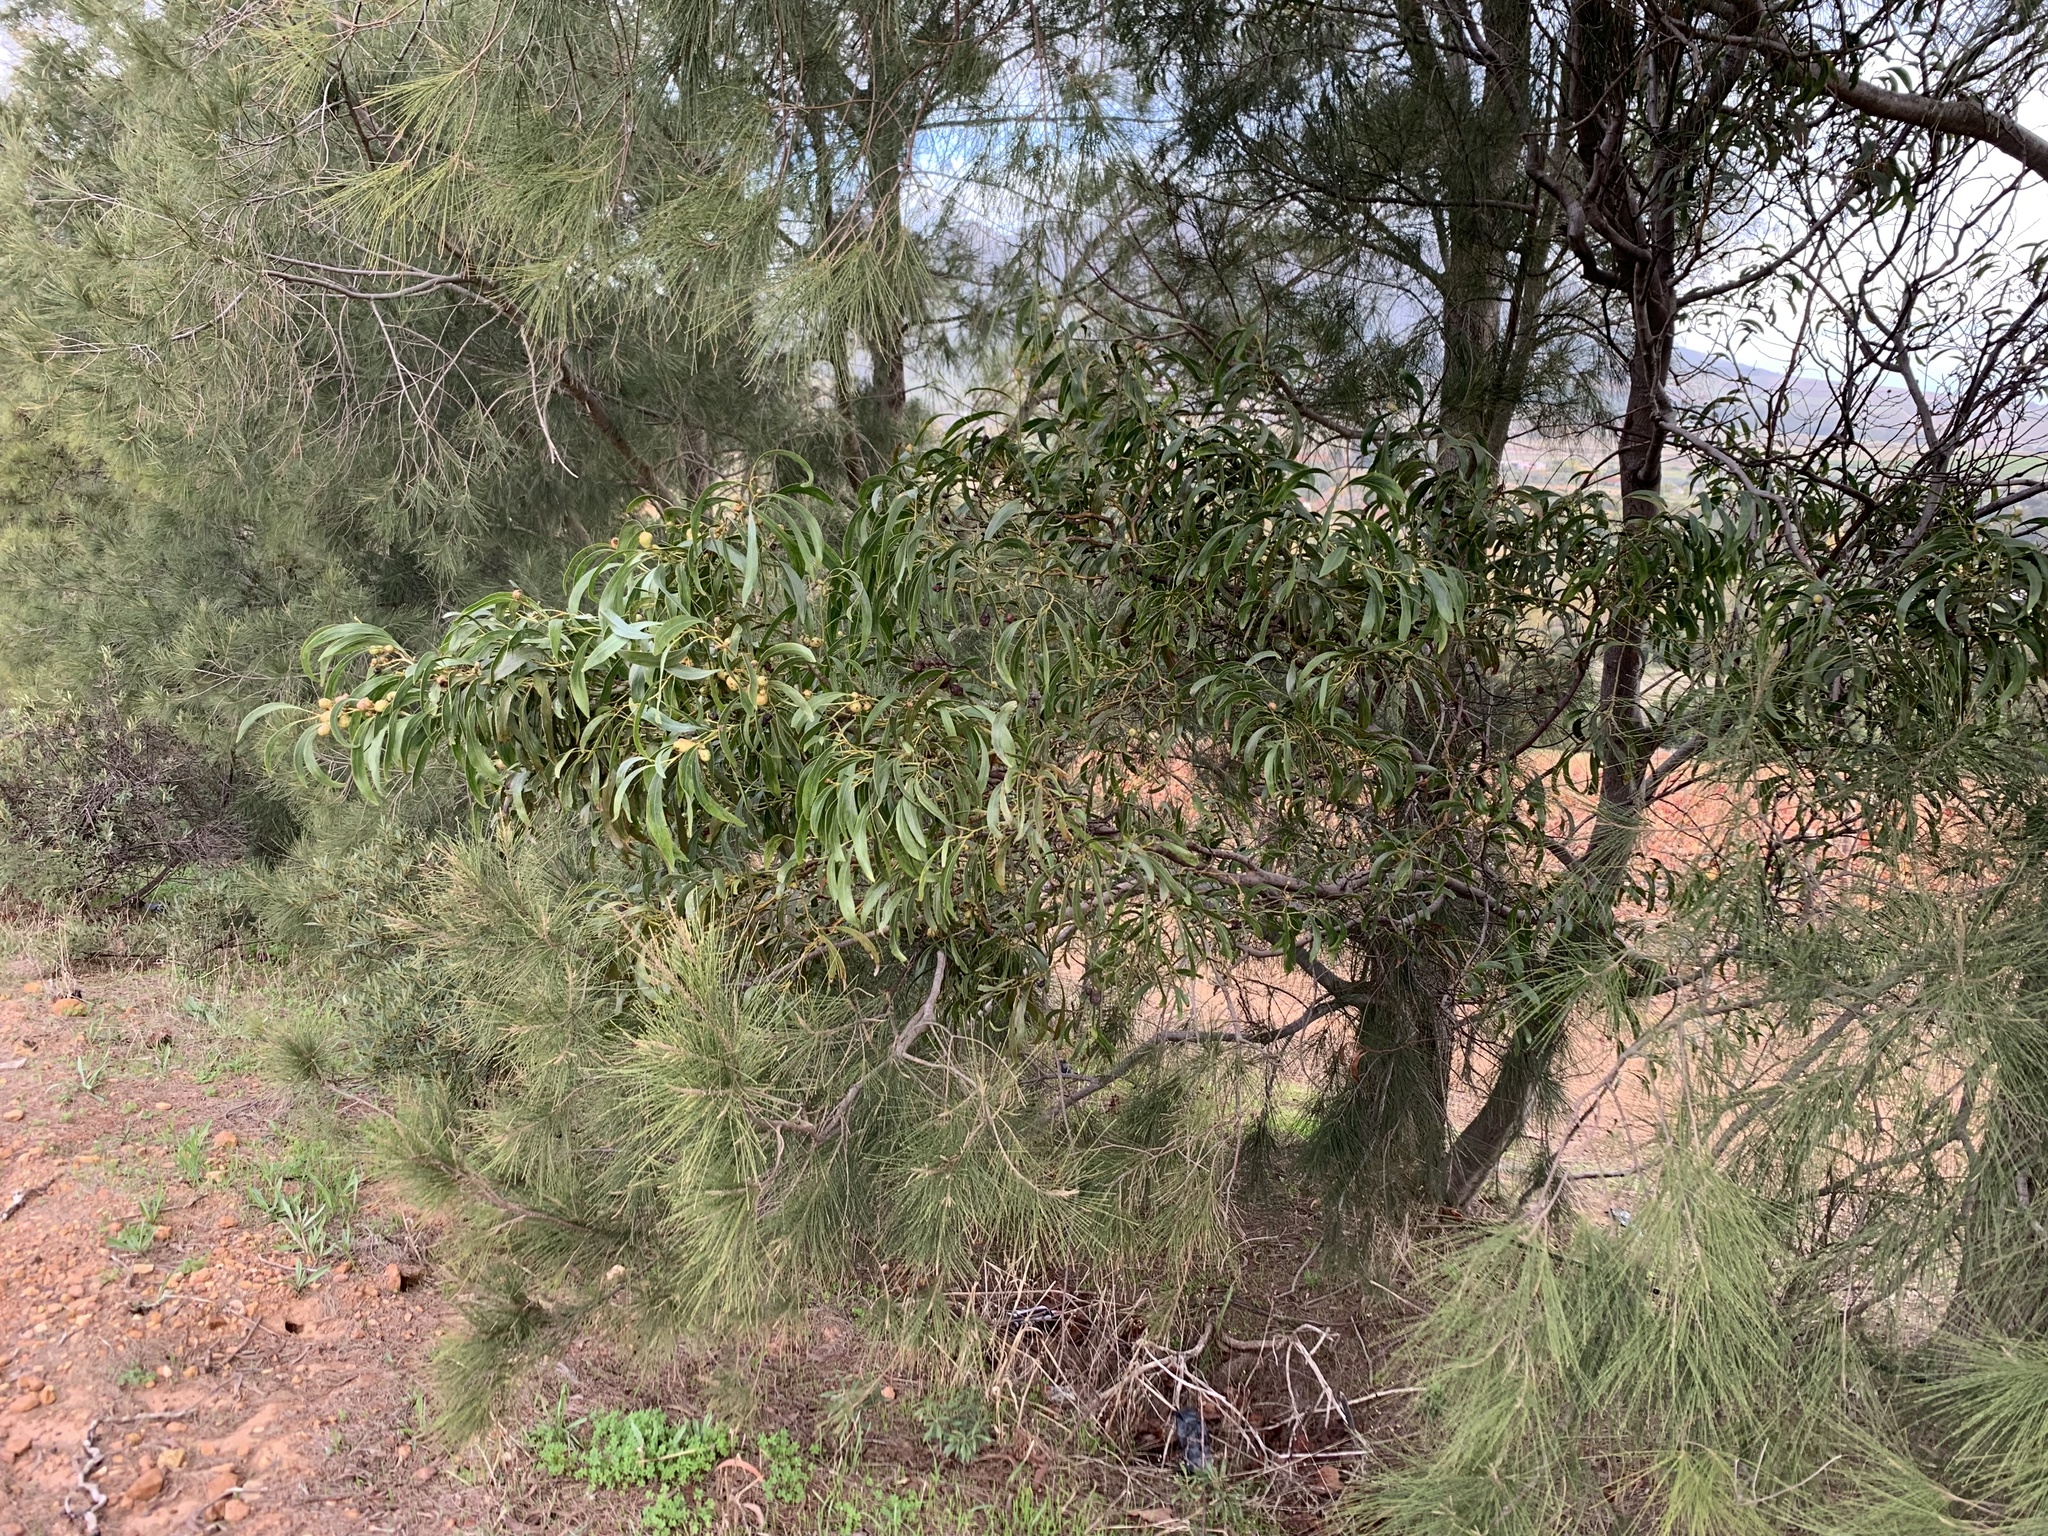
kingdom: Plantae
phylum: Tracheophyta
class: Magnoliopsida
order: Fabales
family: Fabaceae
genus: Acacia
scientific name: Acacia pycnantha
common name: Golden wattle
